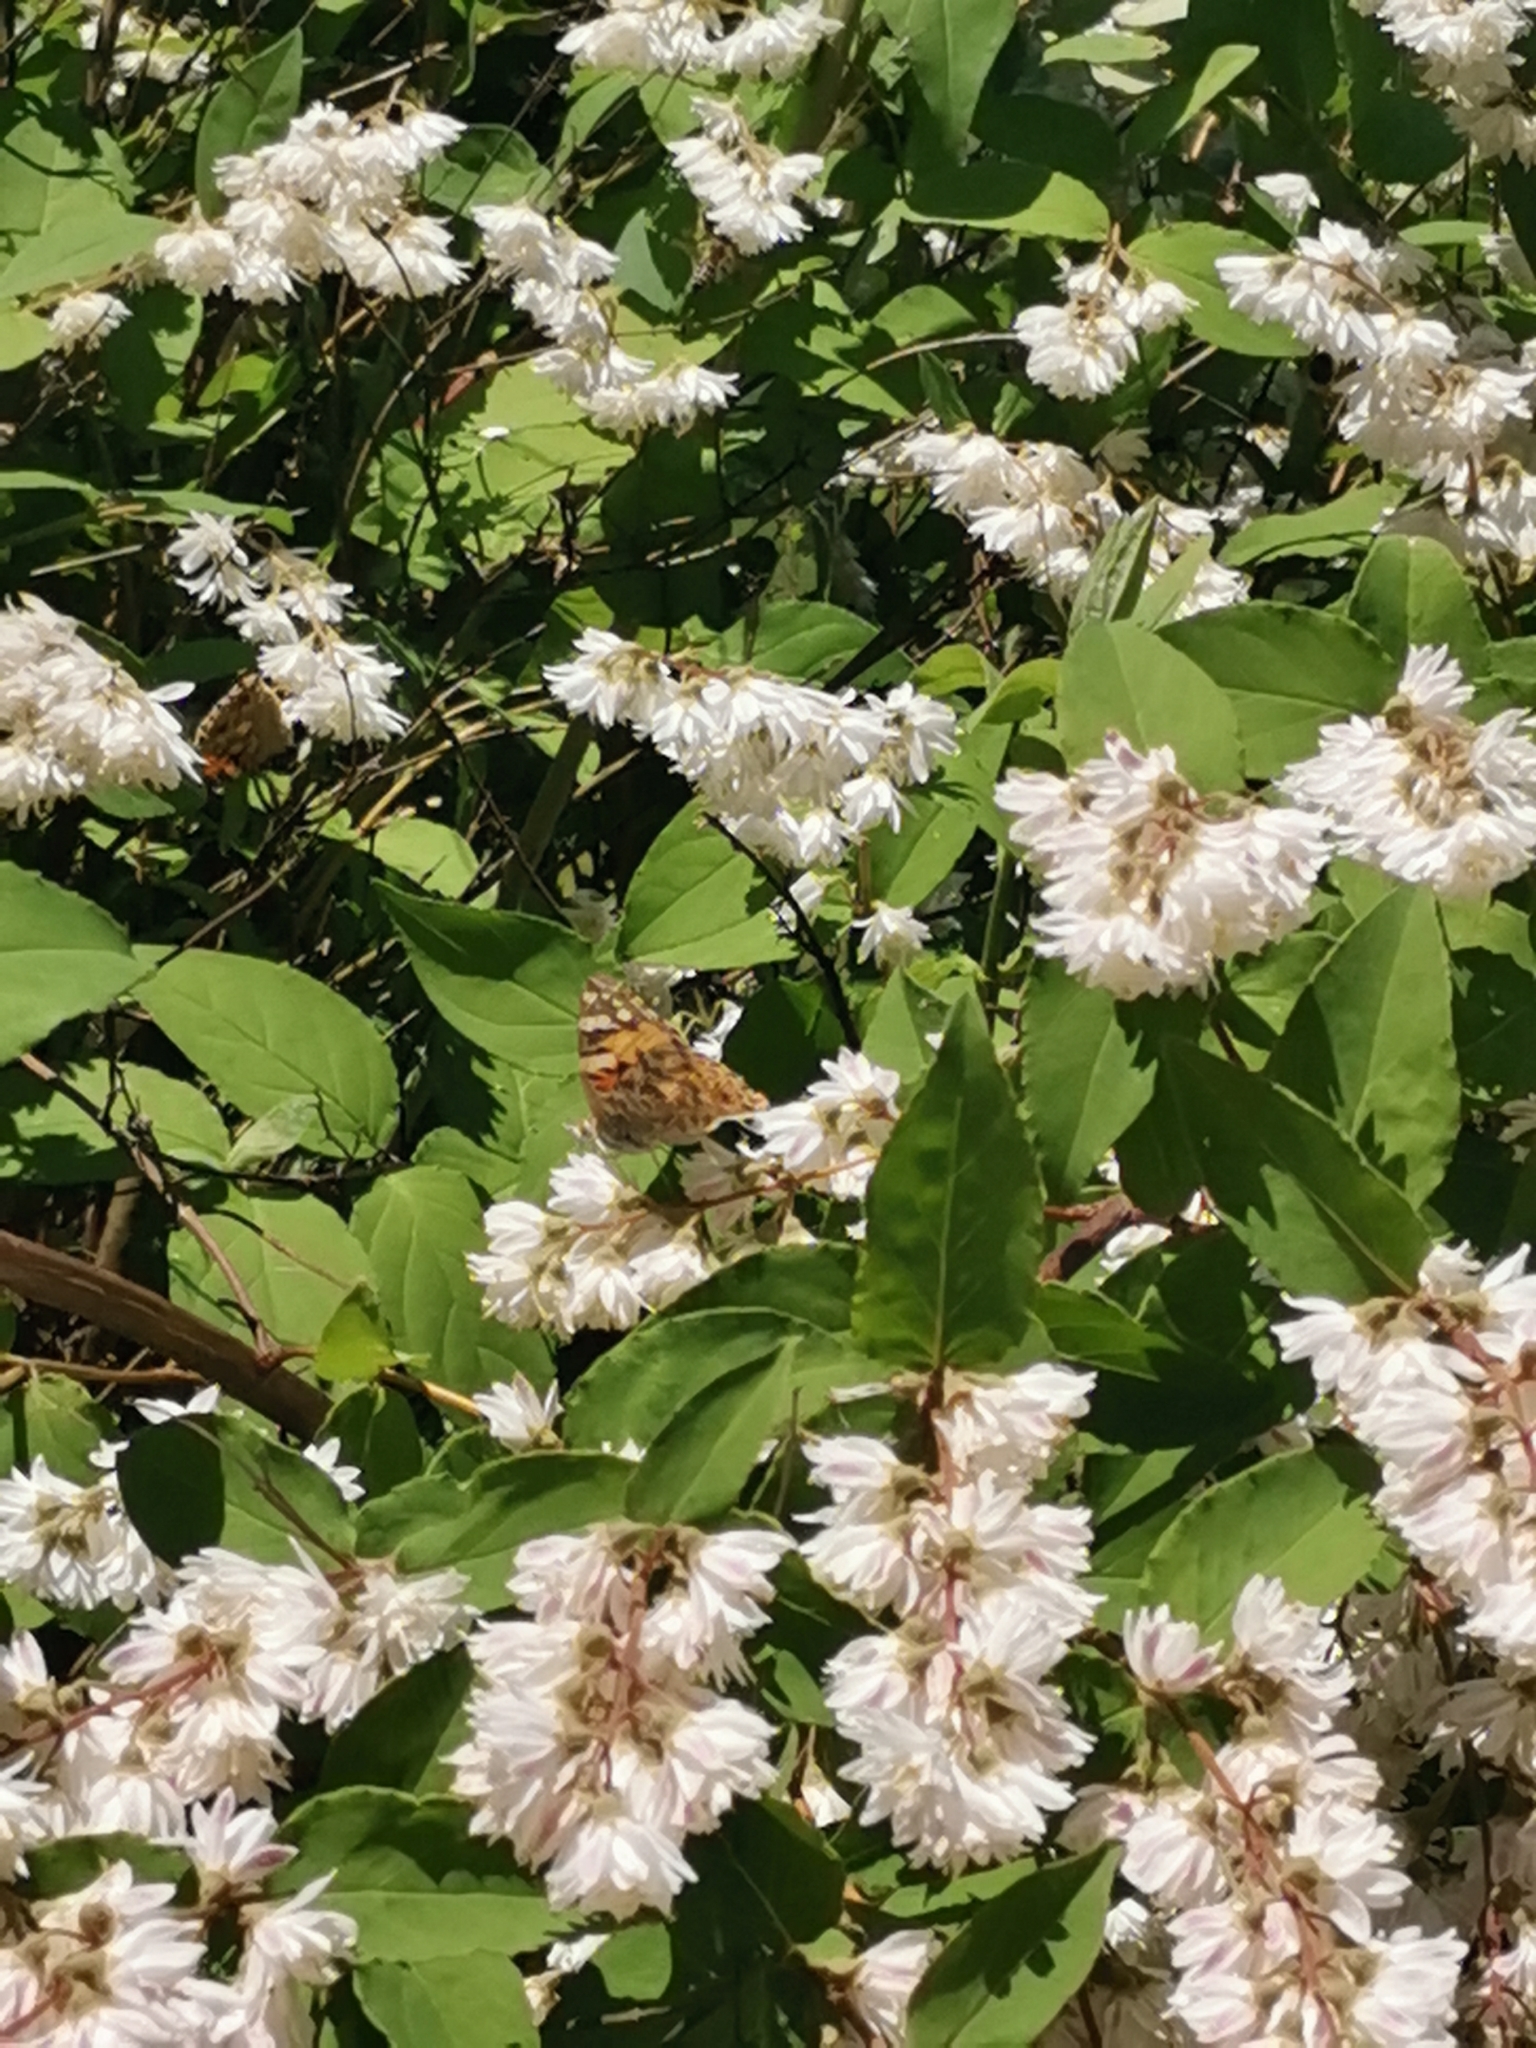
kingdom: Animalia
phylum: Arthropoda
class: Insecta
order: Lepidoptera
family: Nymphalidae
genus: Vanessa
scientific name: Vanessa cardui
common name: Painted lady
